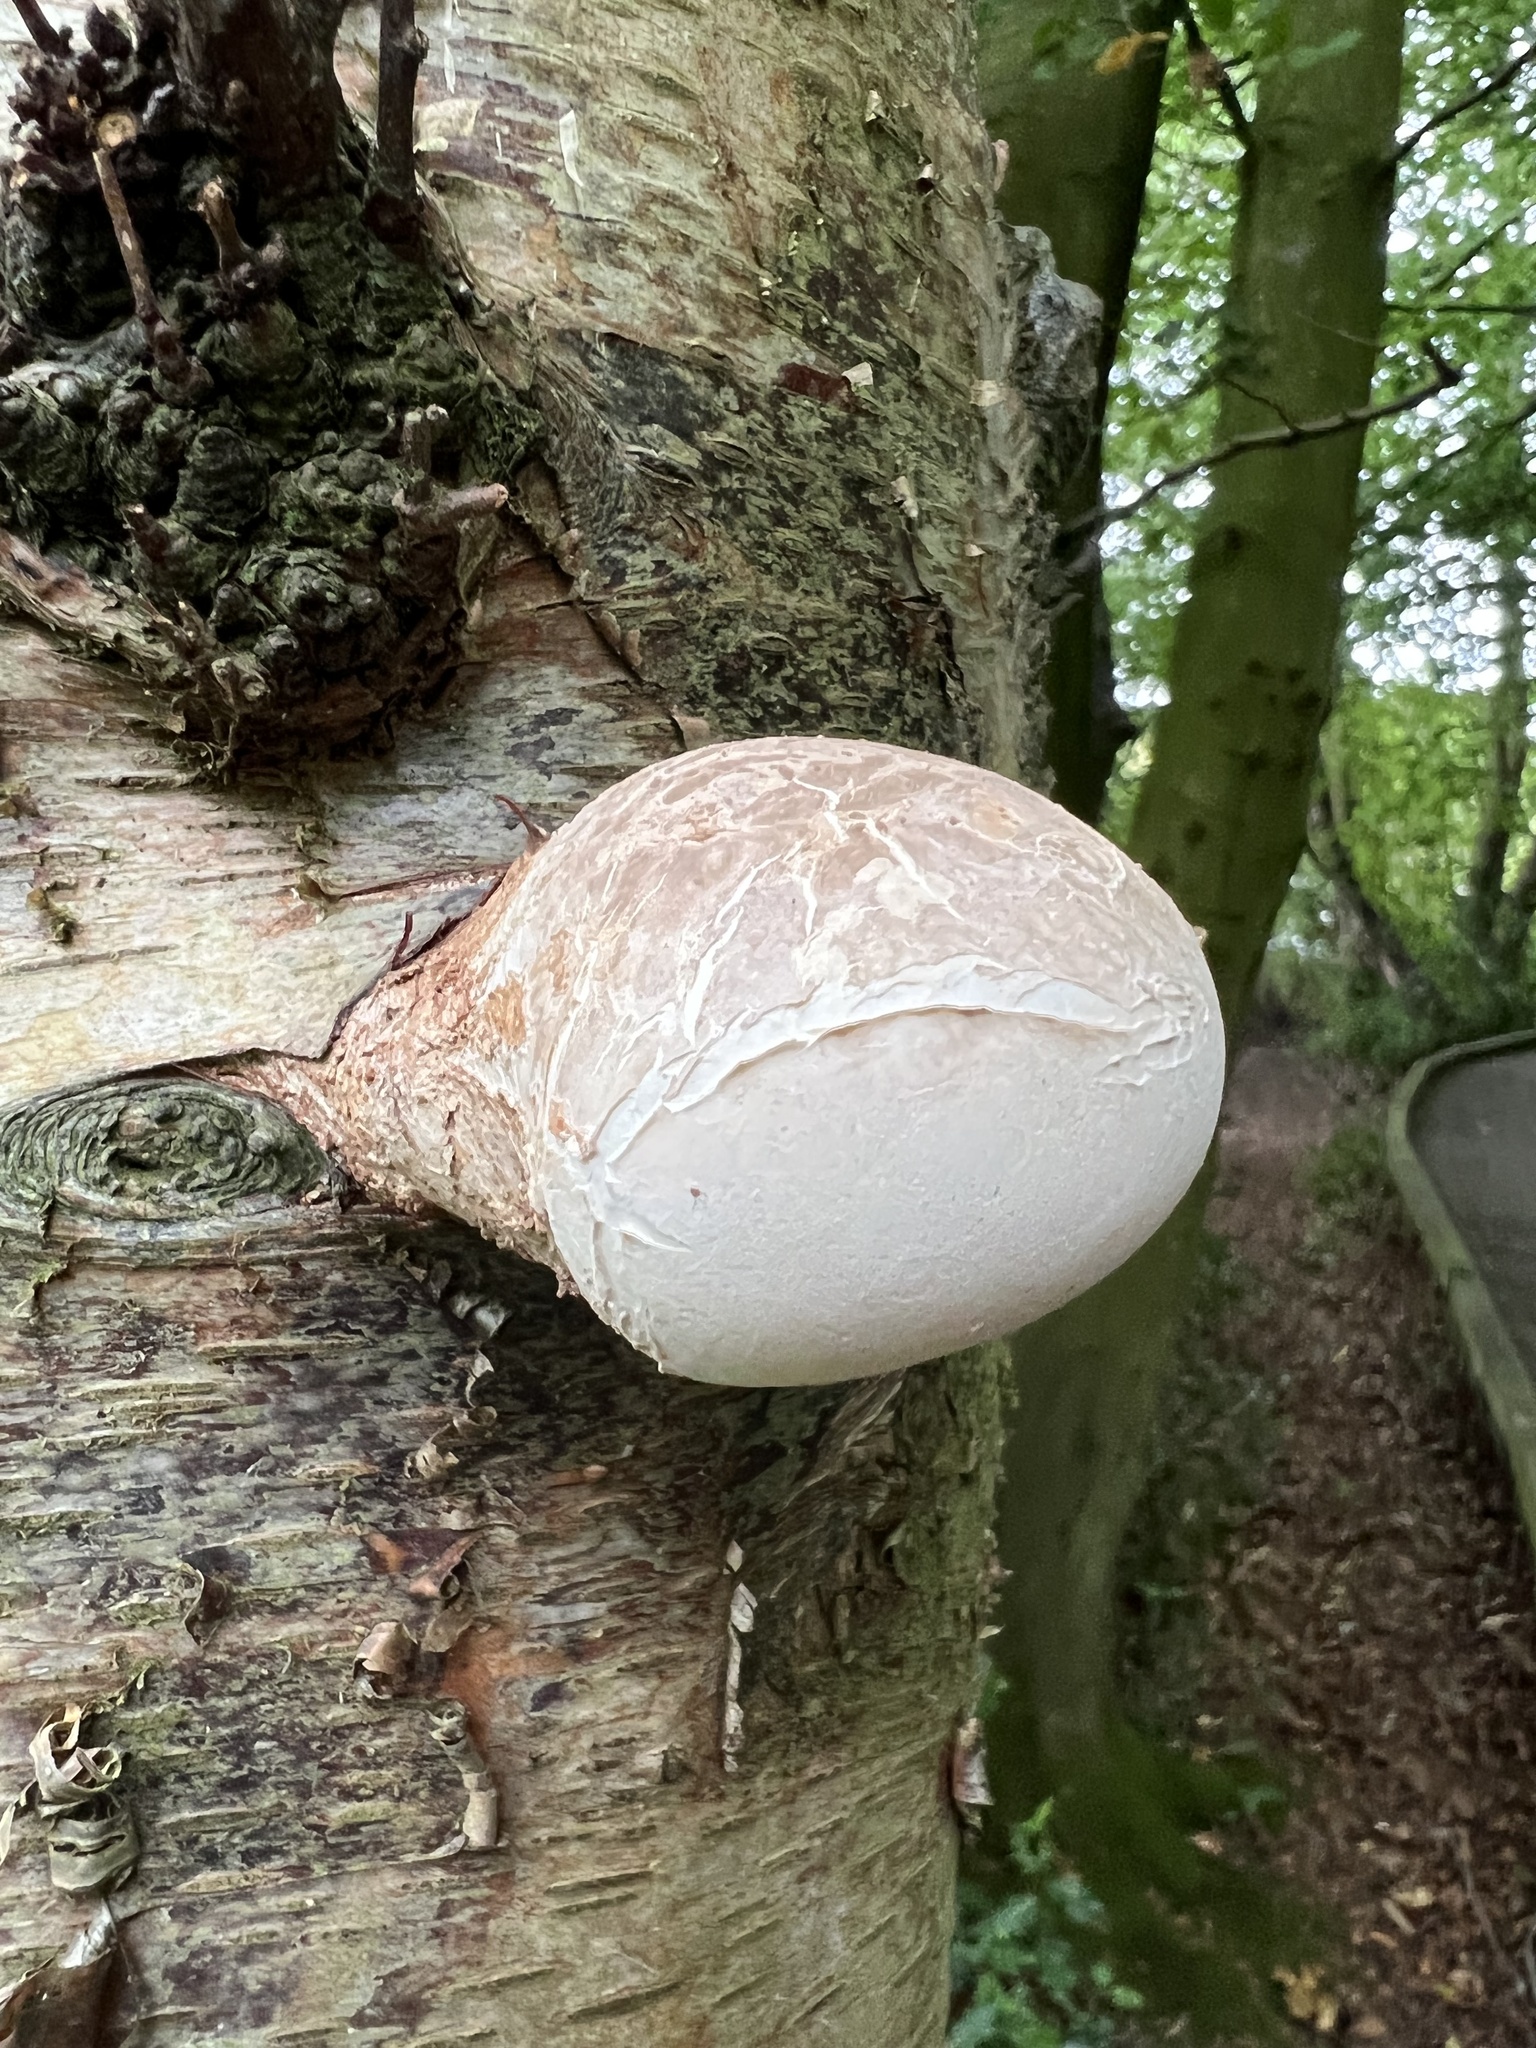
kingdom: Fungi
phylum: Basidiomycota
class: Agaricomycetes
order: Polyporales
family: Fomitopsidaceae
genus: Fomitopsis
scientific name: Fomitopsis betulina
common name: Birch polypore
